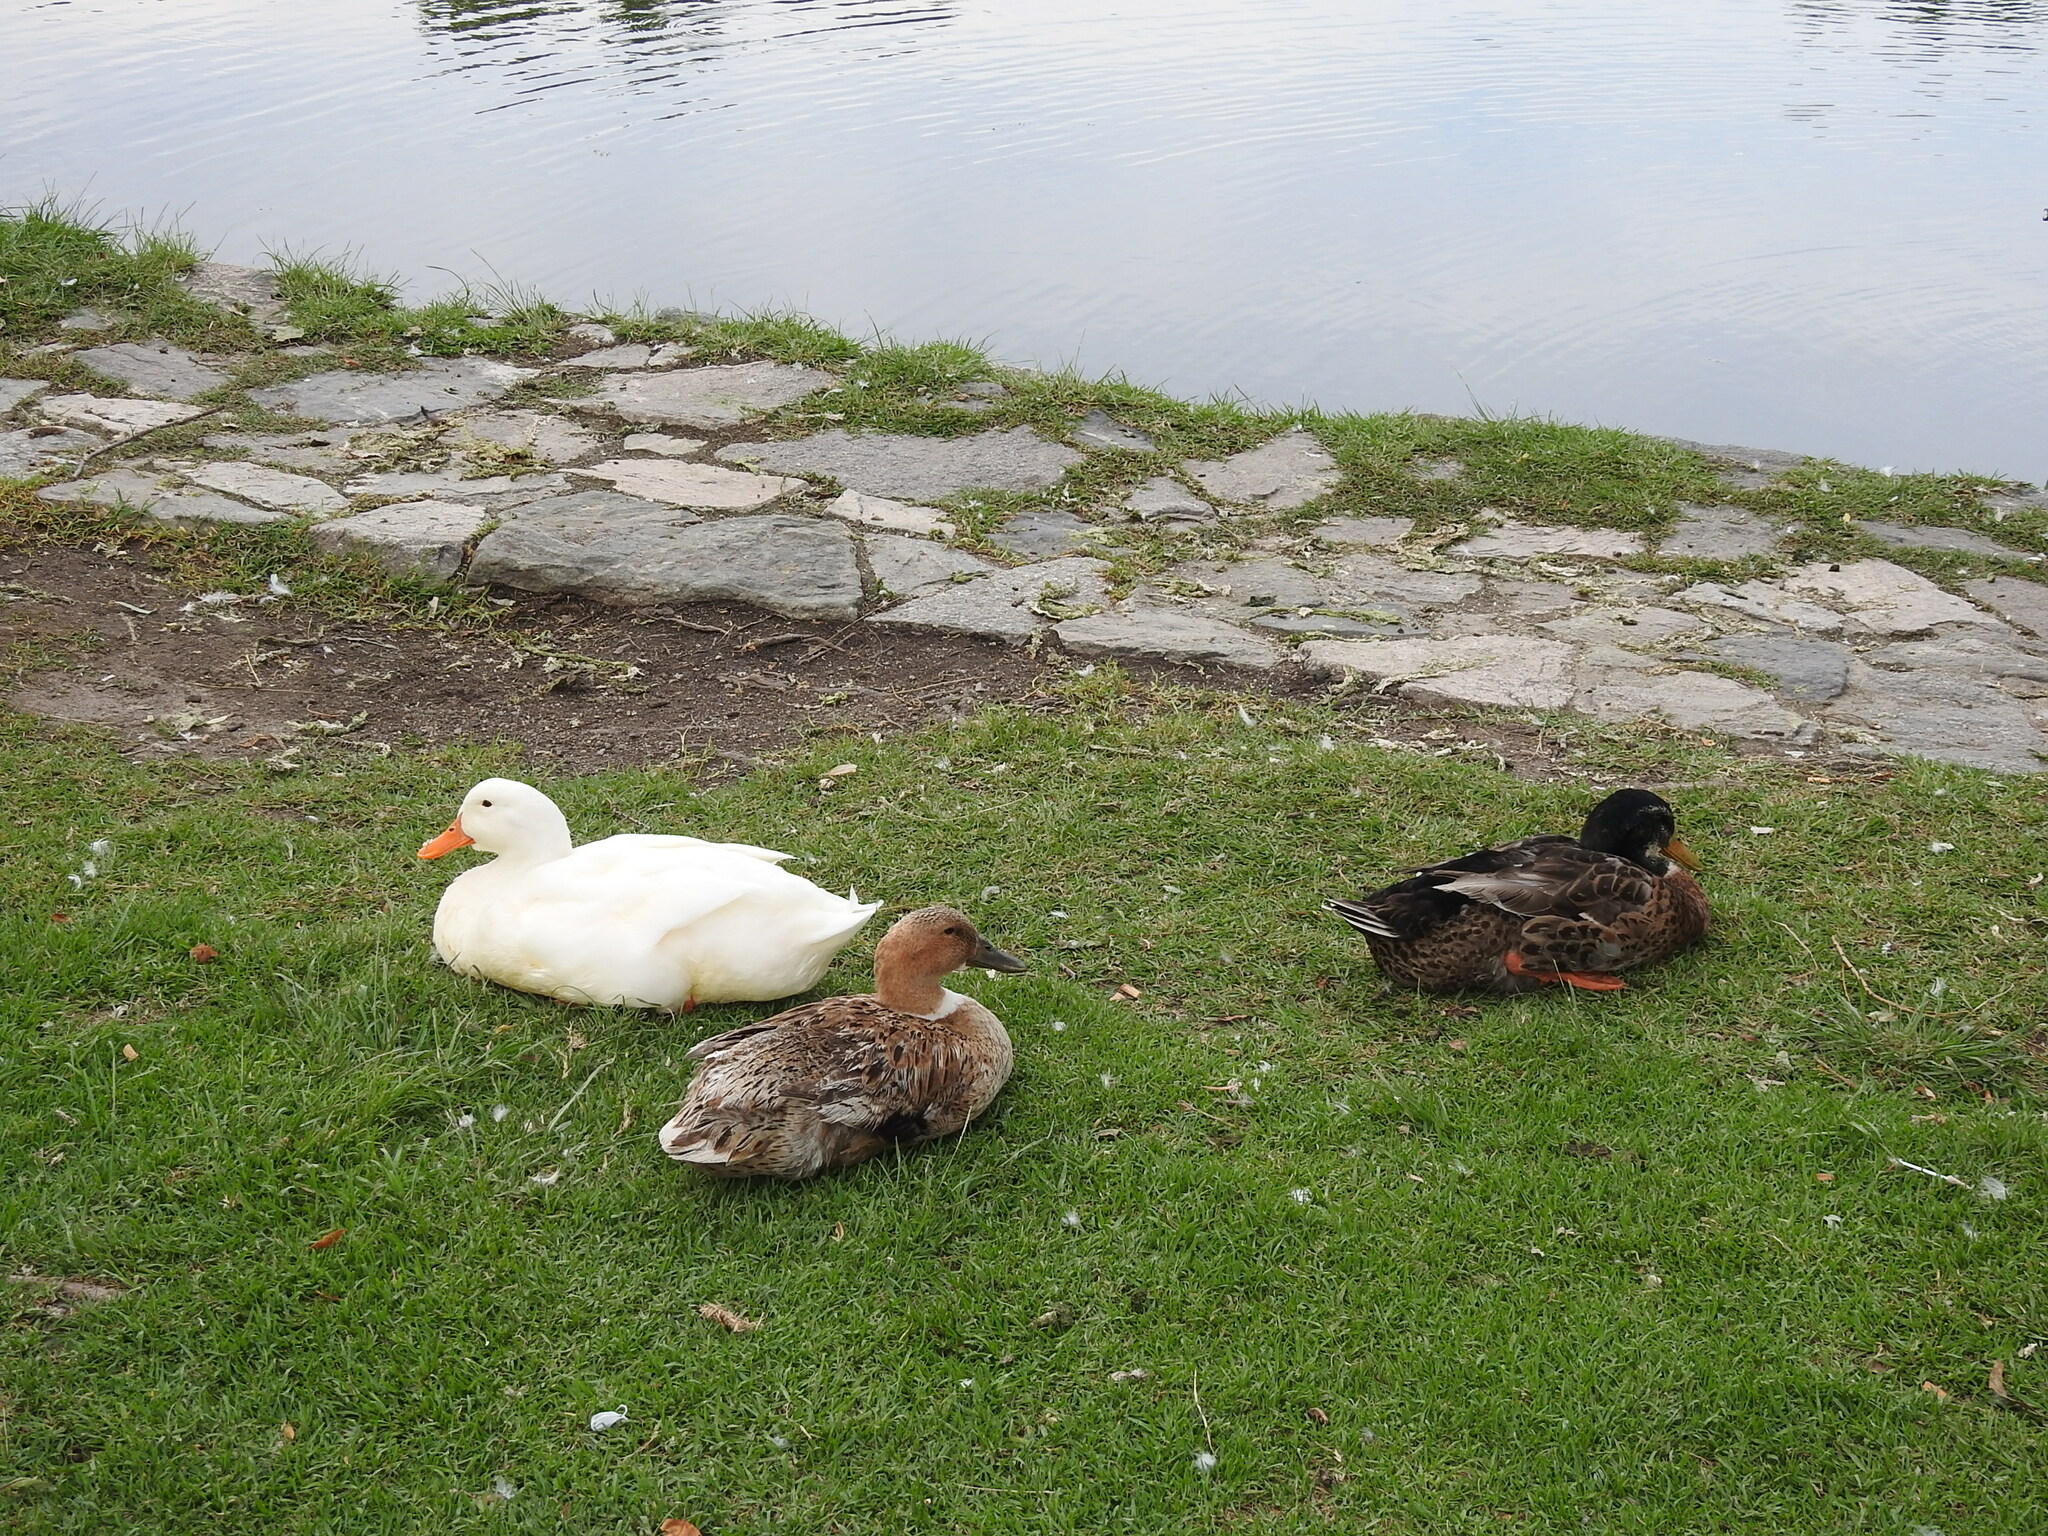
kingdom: Animalia
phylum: Chordata
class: Aves
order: Anseriformes
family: Anatidae
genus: Anas
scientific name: Anas platyrhynchos
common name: Mallard
